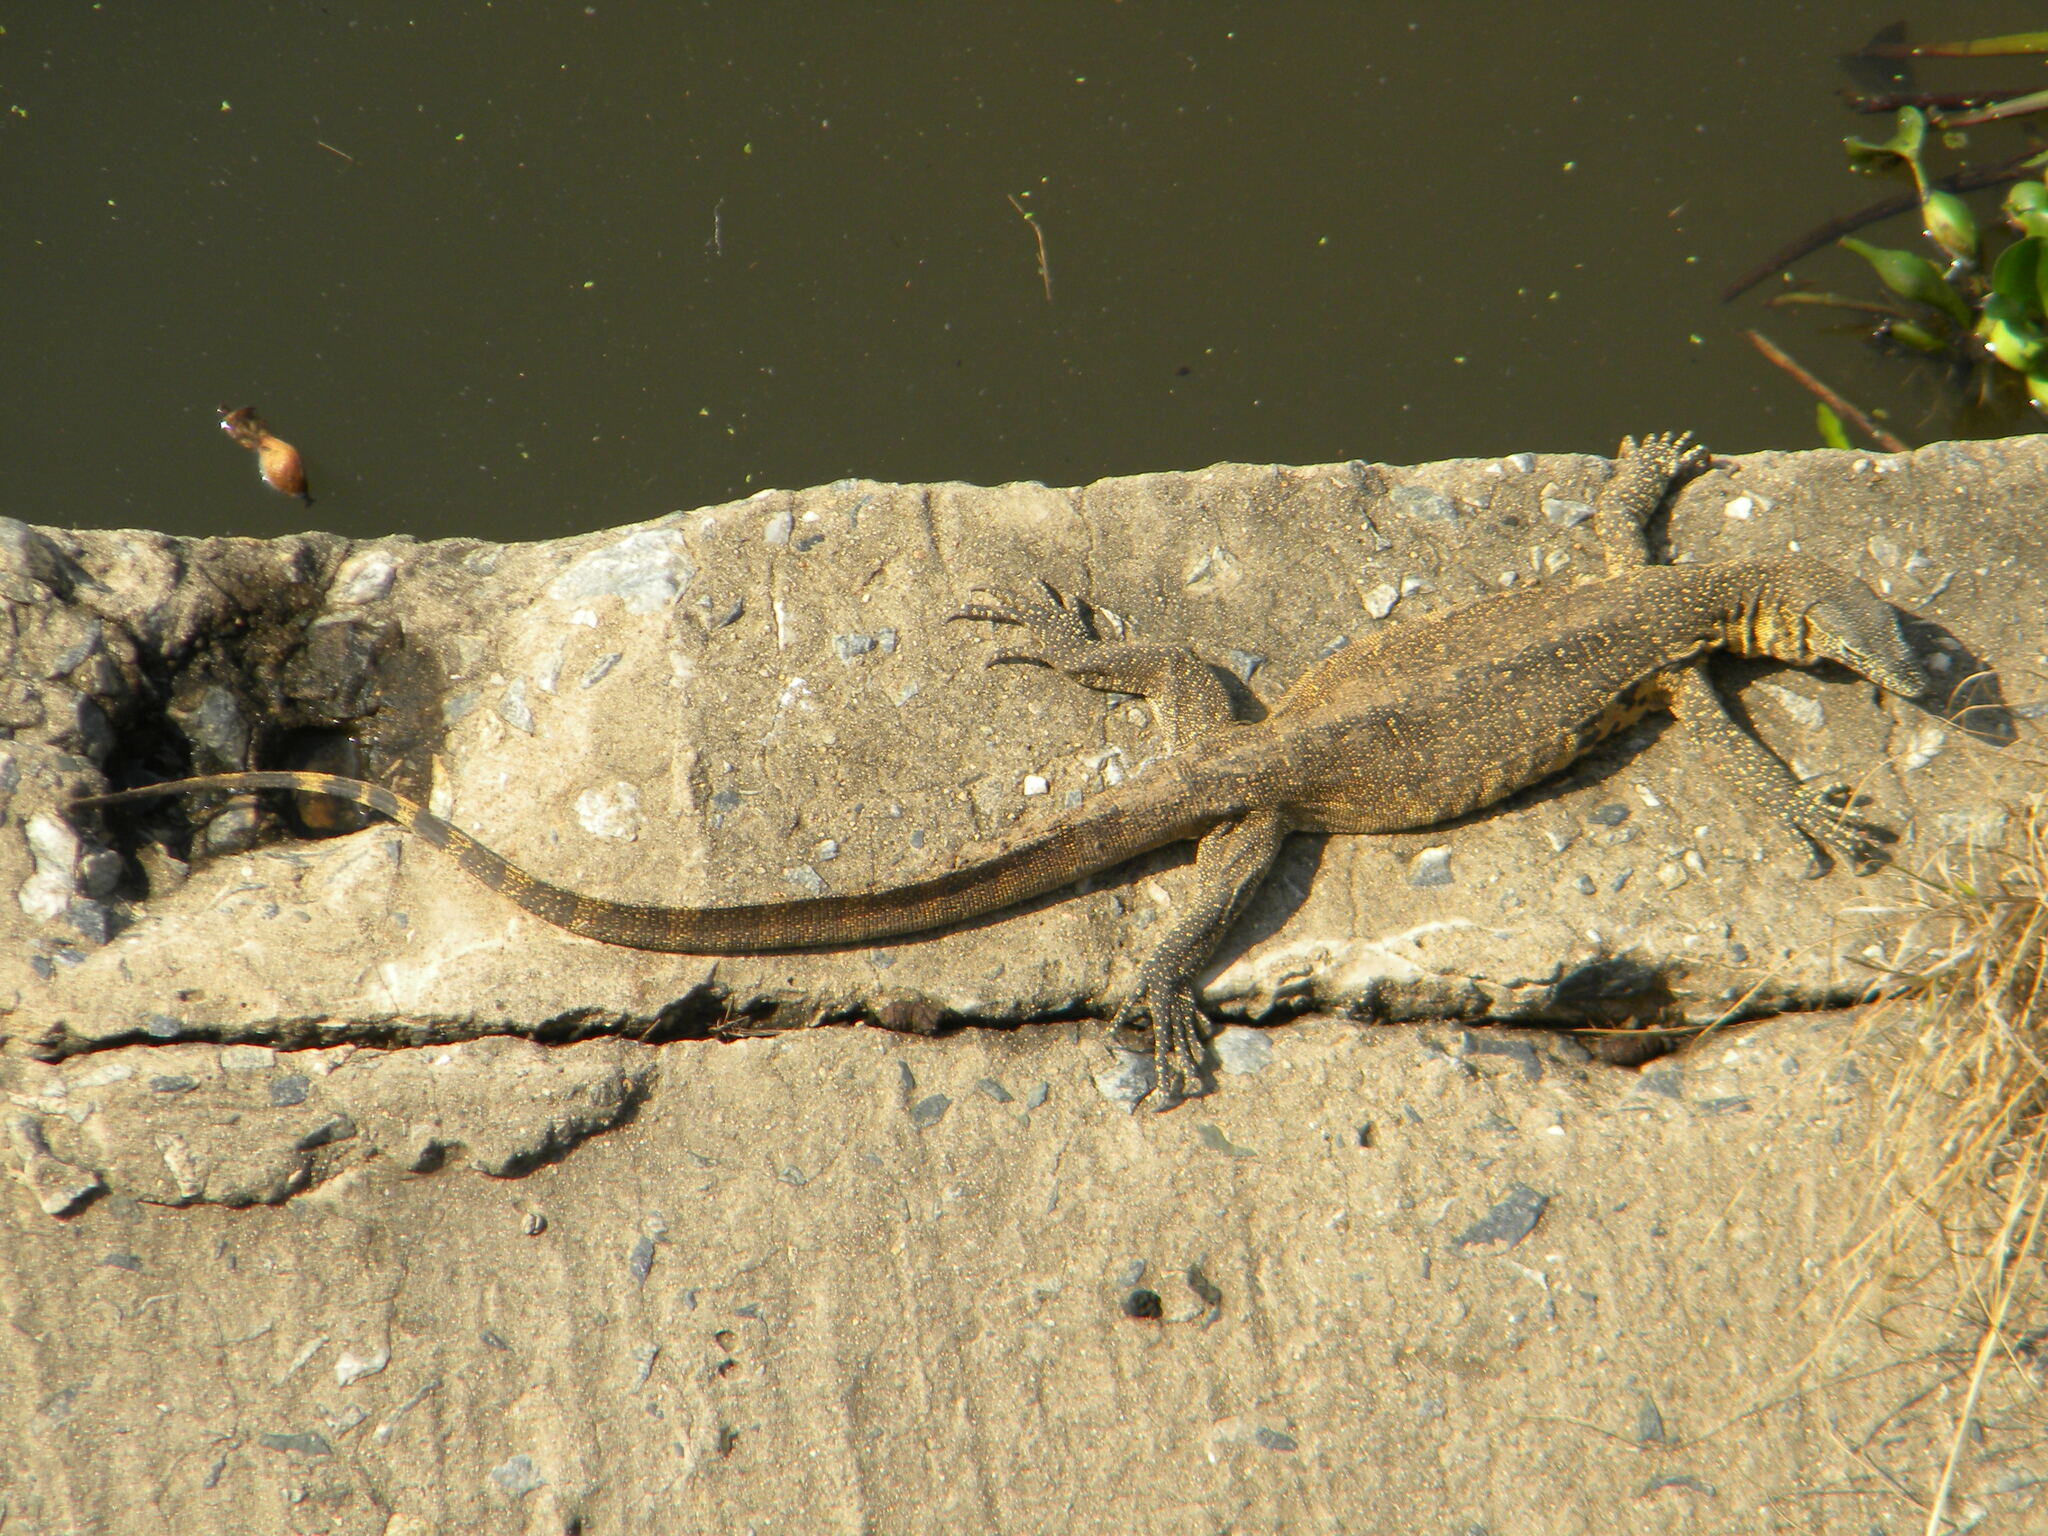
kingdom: Animalia
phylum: Chordata
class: Squamata
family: Varanidae
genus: Varanus
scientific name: Varanus niloticus
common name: Nile monitor
